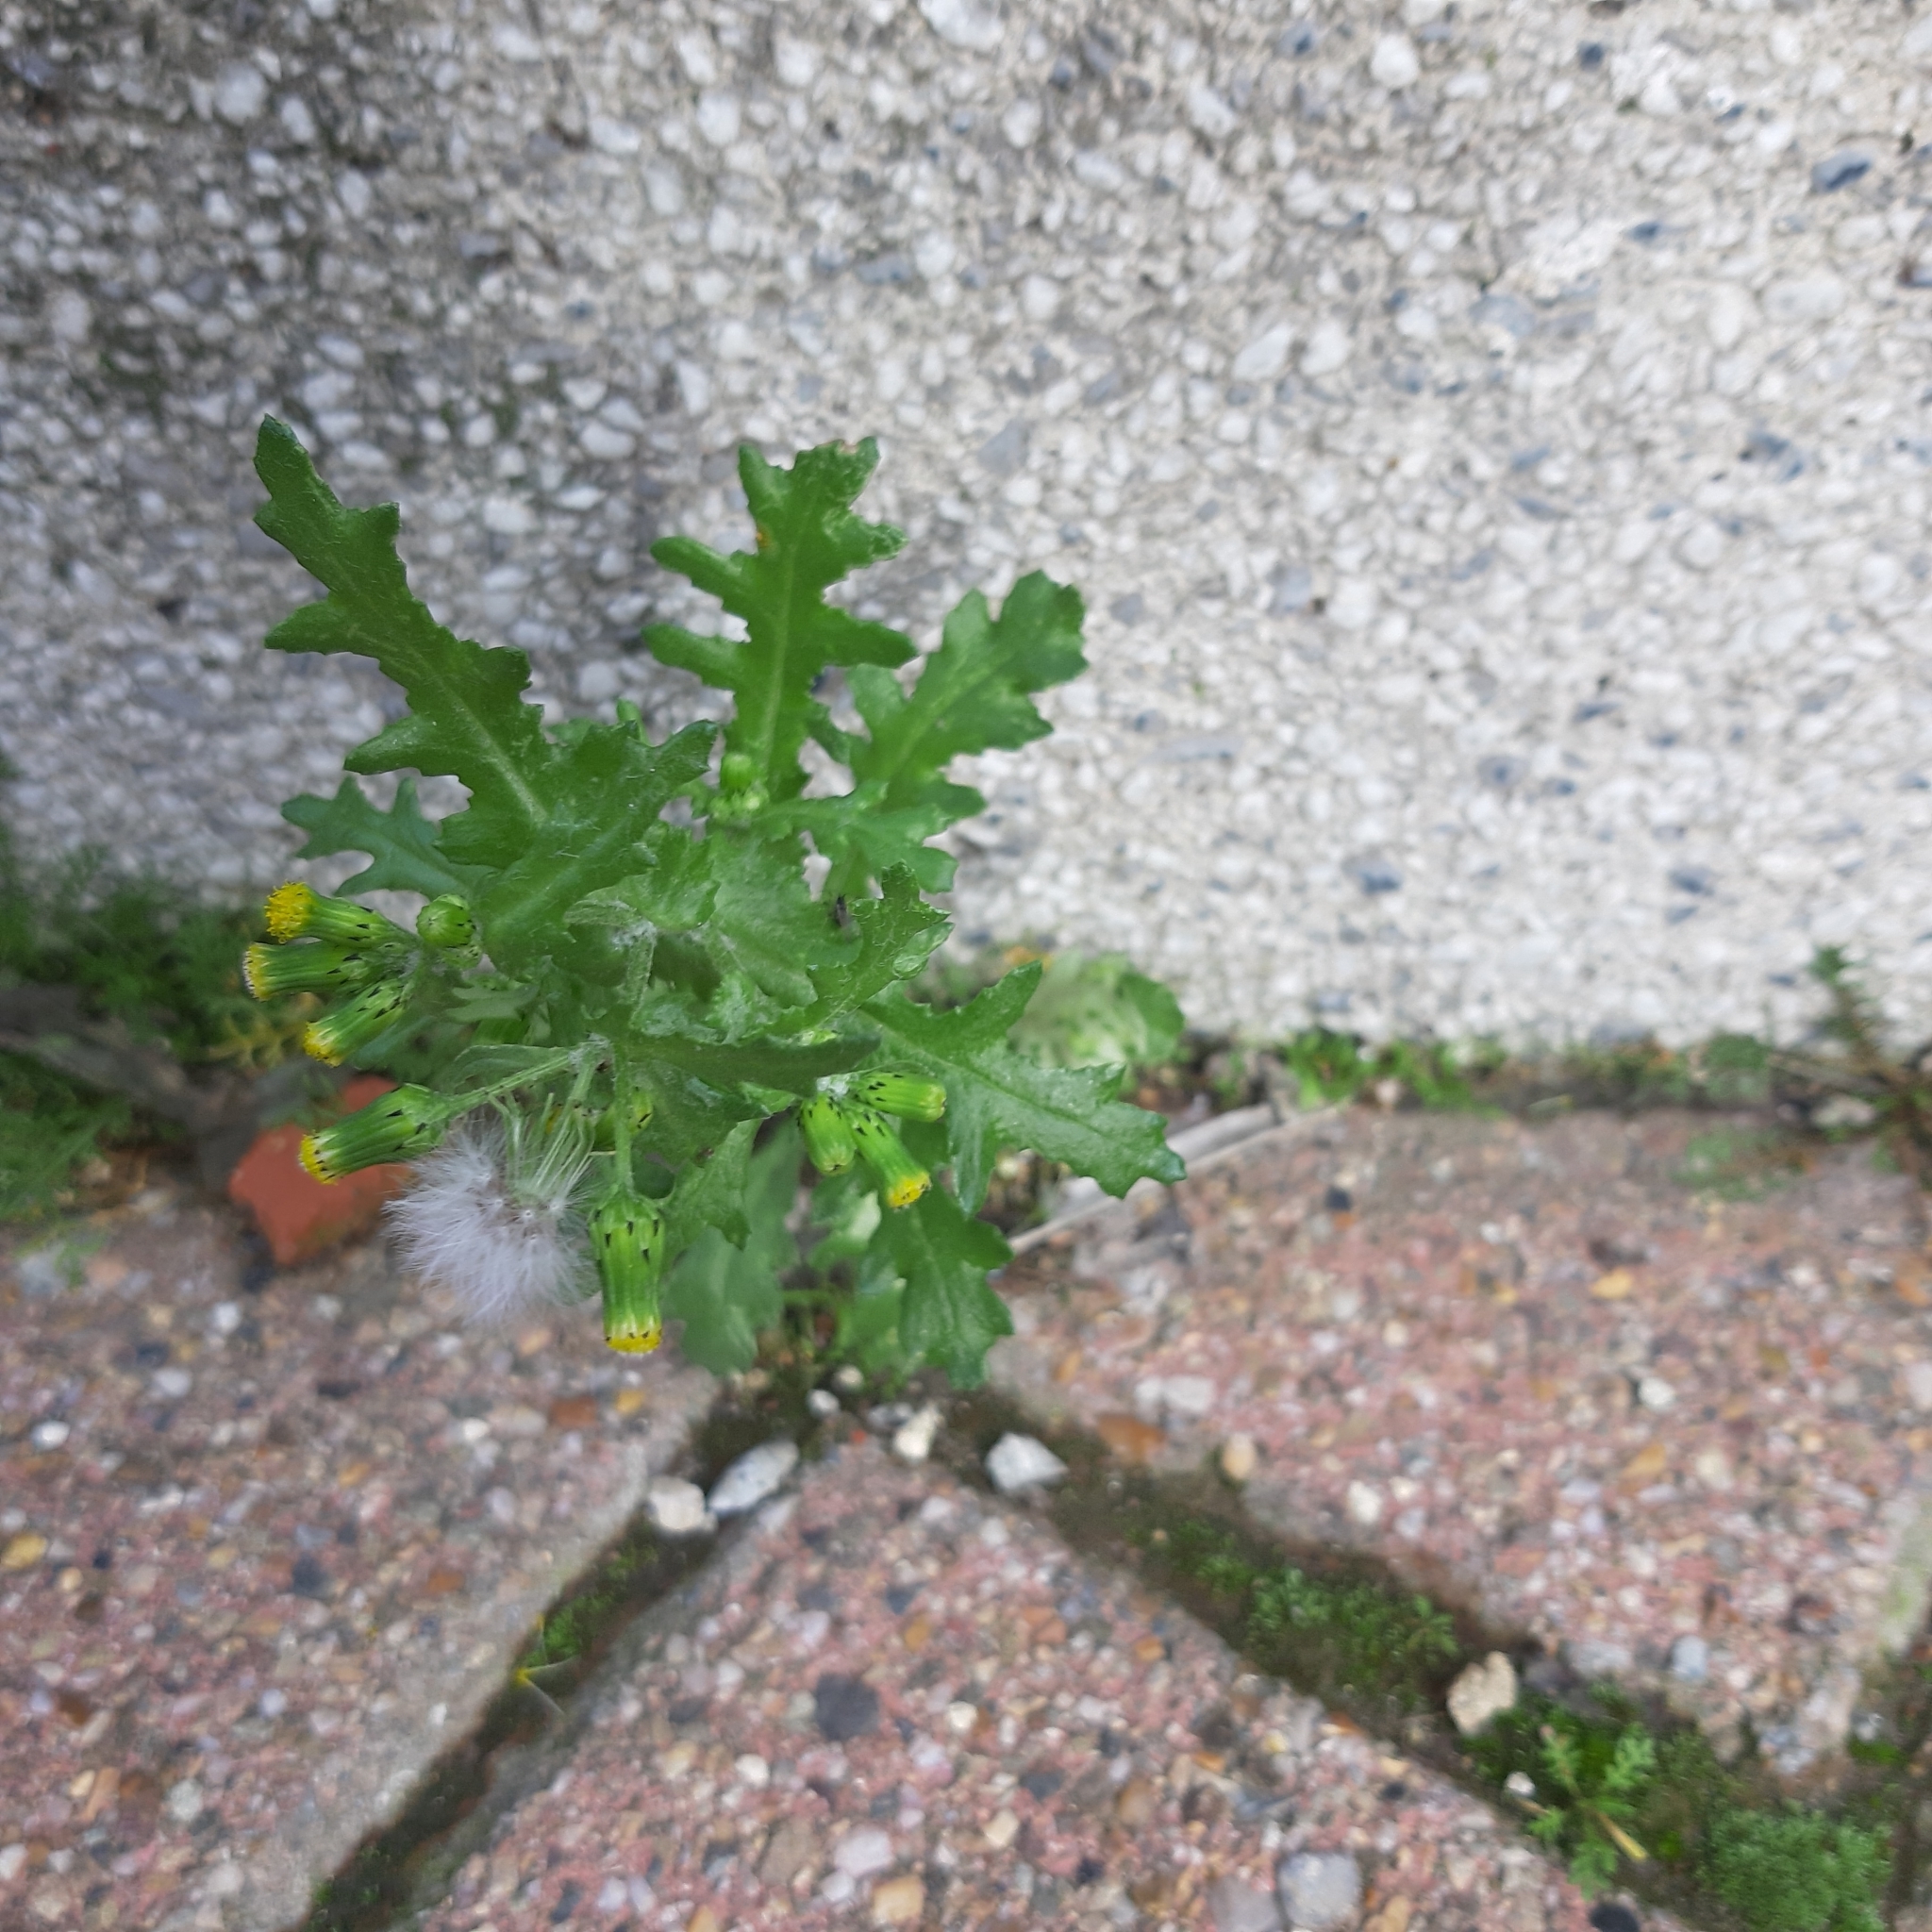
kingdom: Plantae
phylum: Tracheophyta
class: Magnoliopsida
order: Asterales
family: Asteraceae
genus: Senecio
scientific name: Senecio vulgaris
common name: Old-man-in-the-spring
